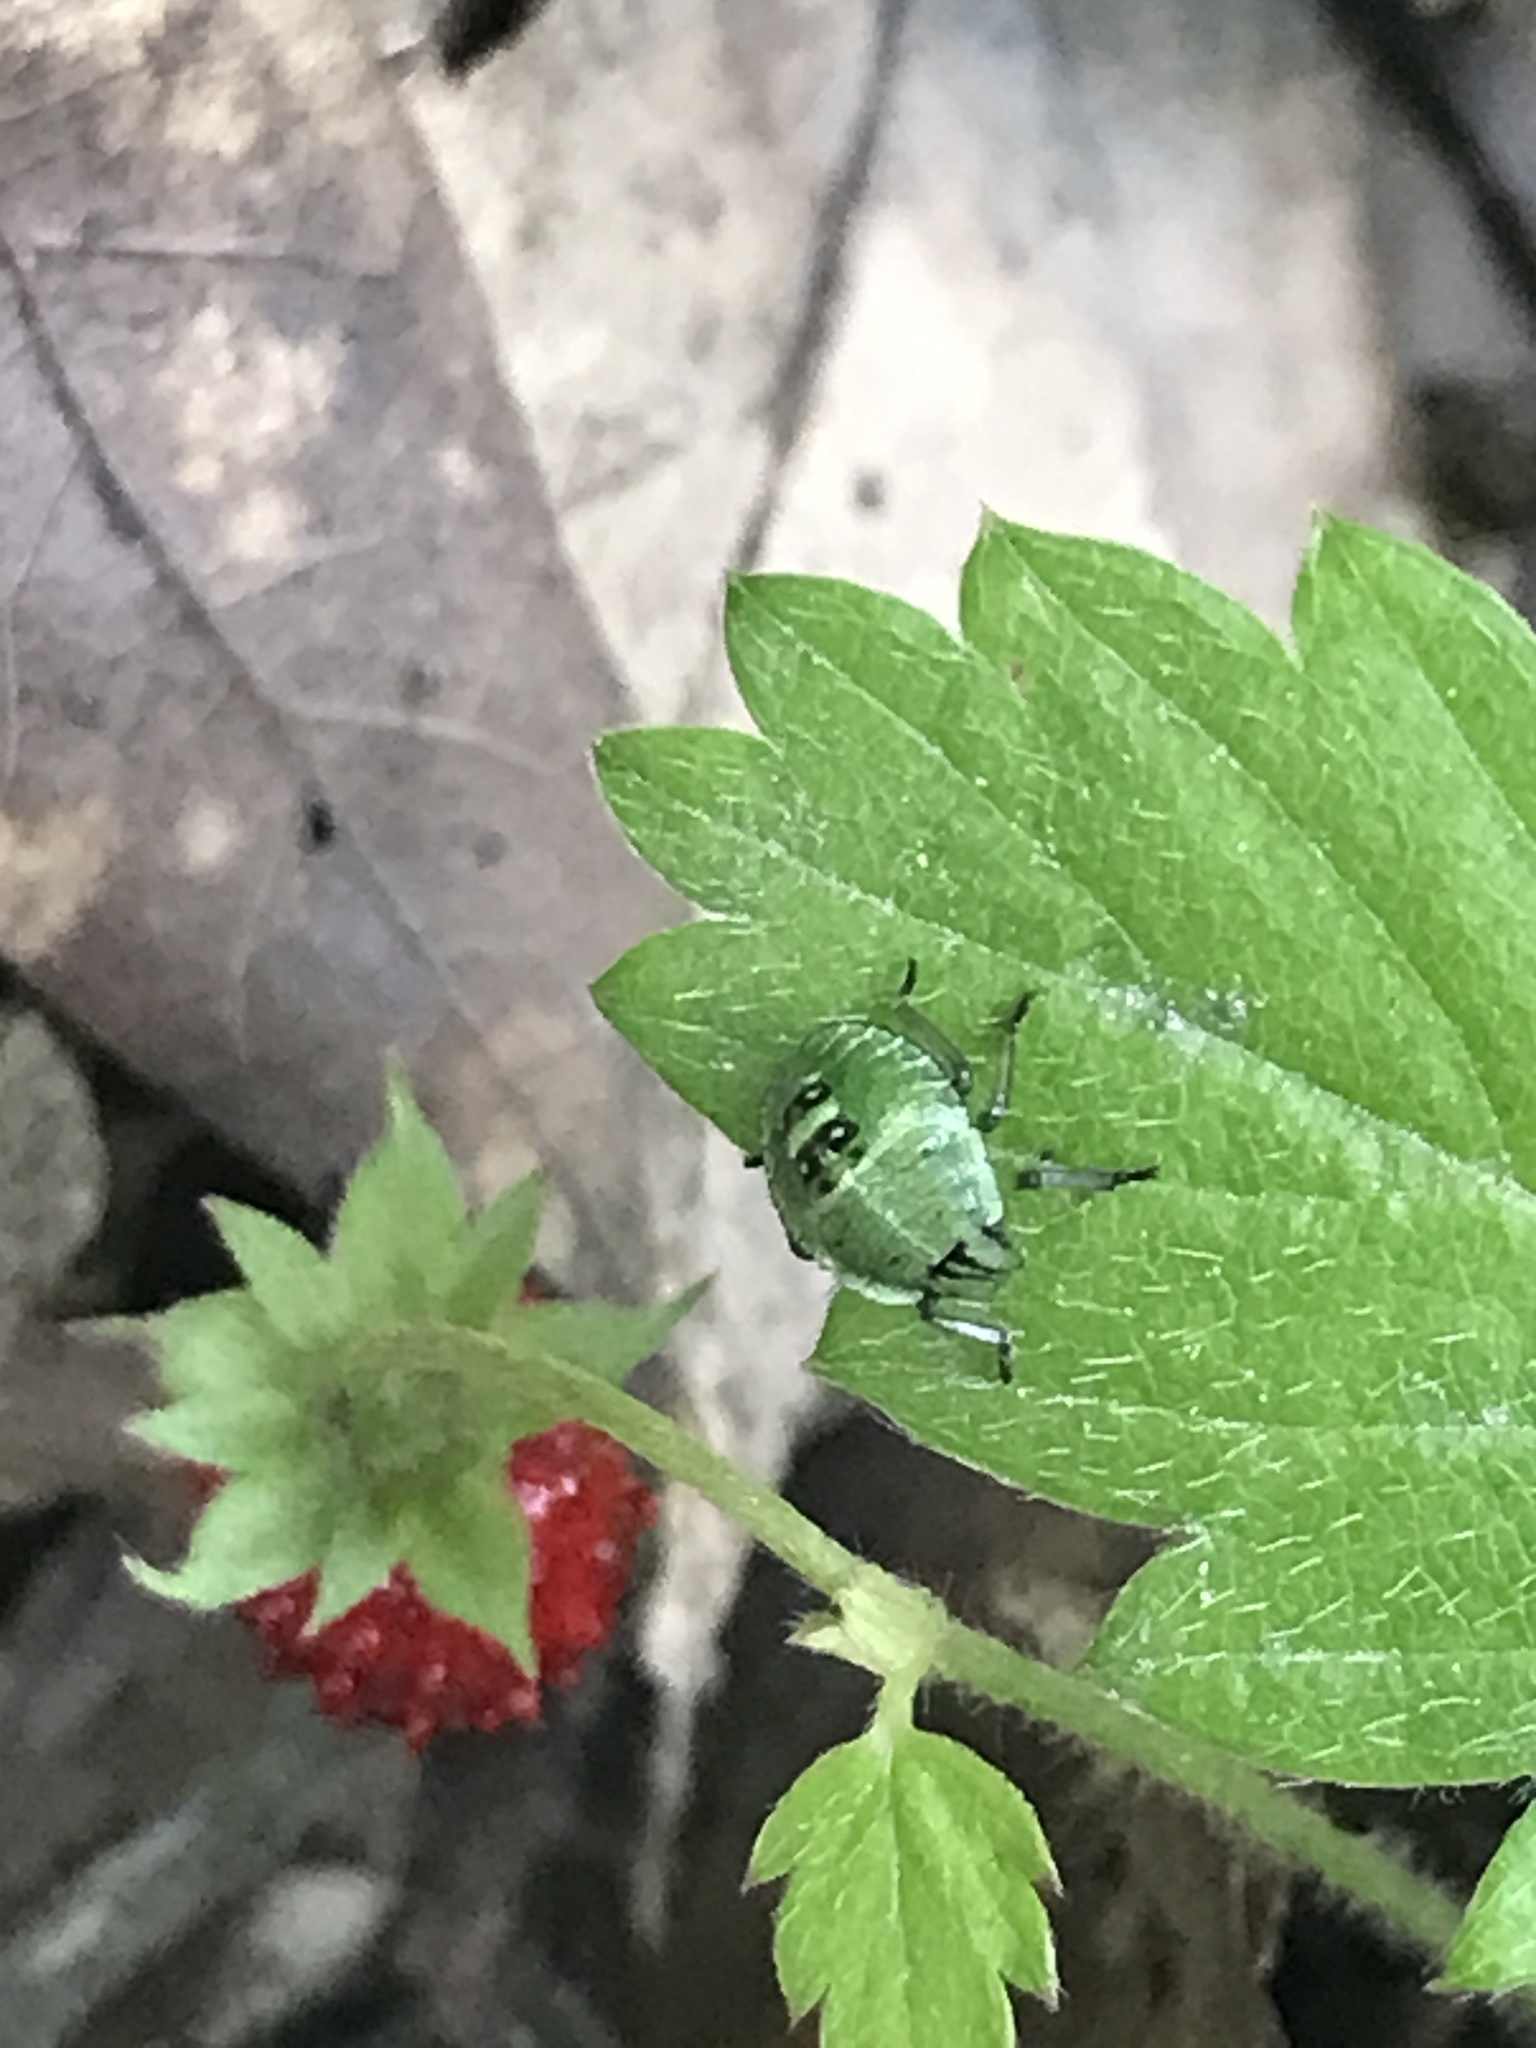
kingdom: Animalia
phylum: Arthropoda
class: Insecta
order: Hemiptera
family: Pentatomidae
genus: Palomena
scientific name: Palomena prasina
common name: Green shieldbug
